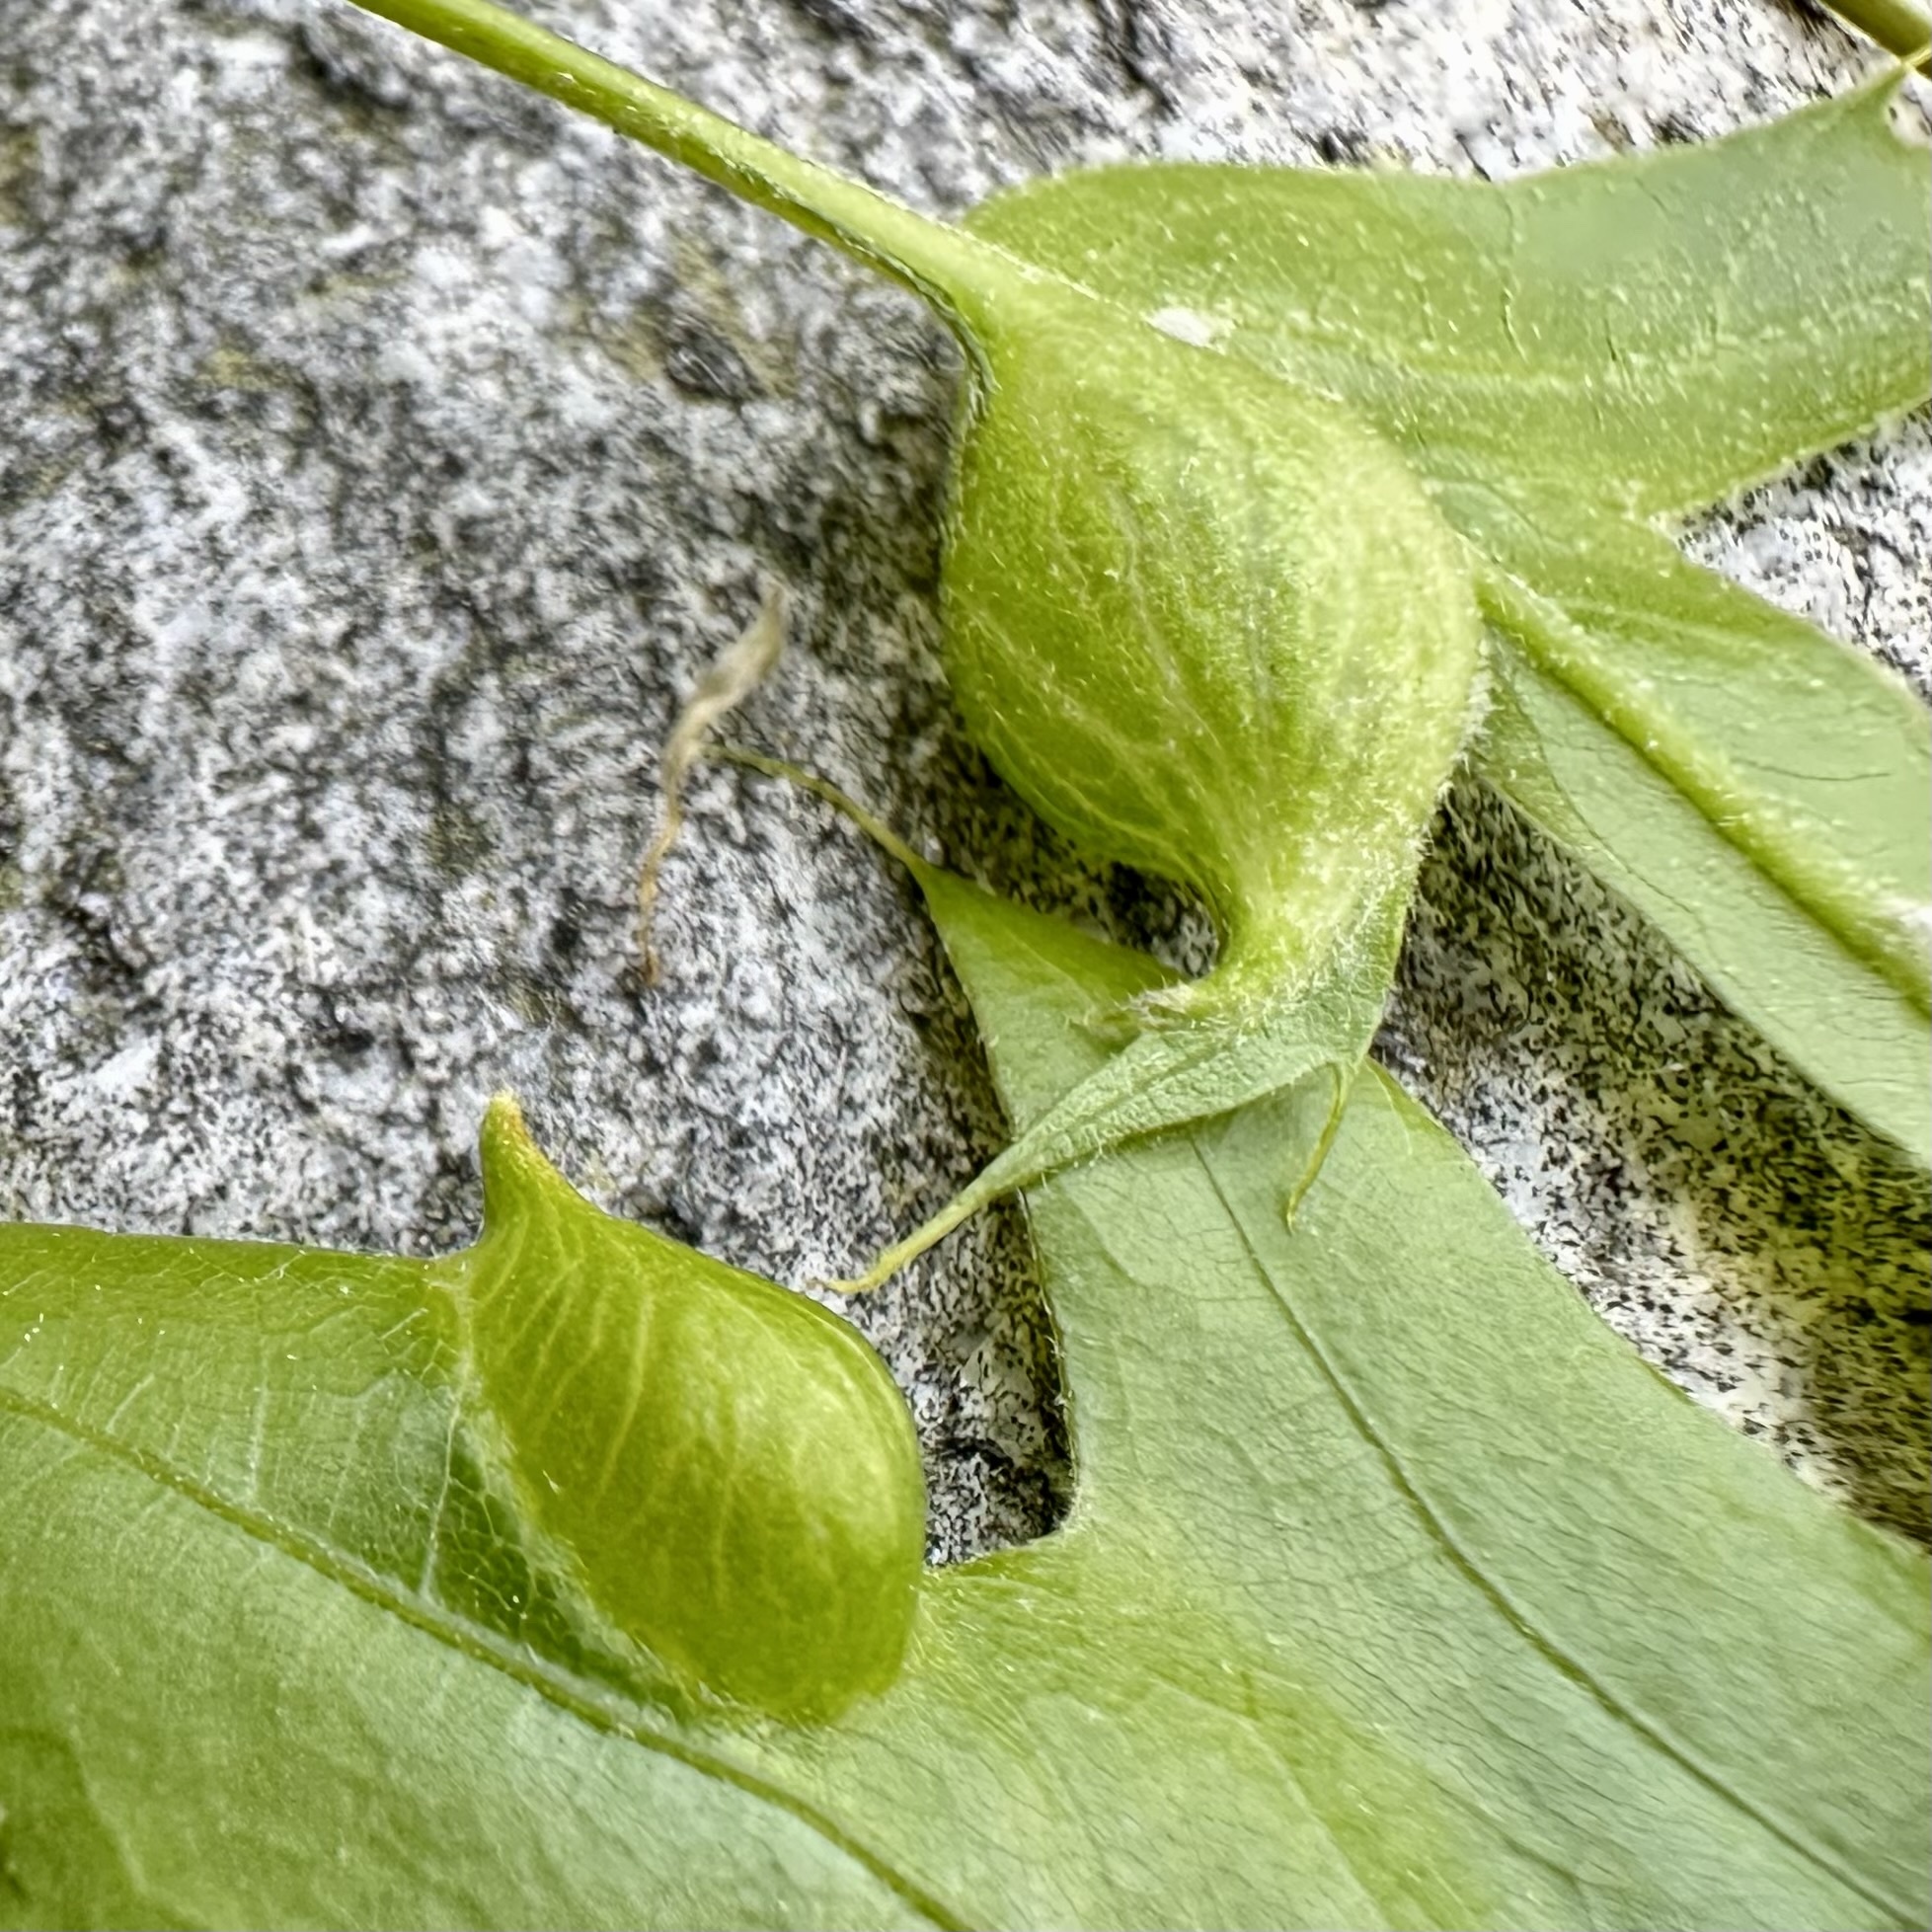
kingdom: Animalia
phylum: Arthropoda
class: Insecta
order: Hymenoptera
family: Cynipidae
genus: Dryocosmus
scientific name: Dryocosmus
